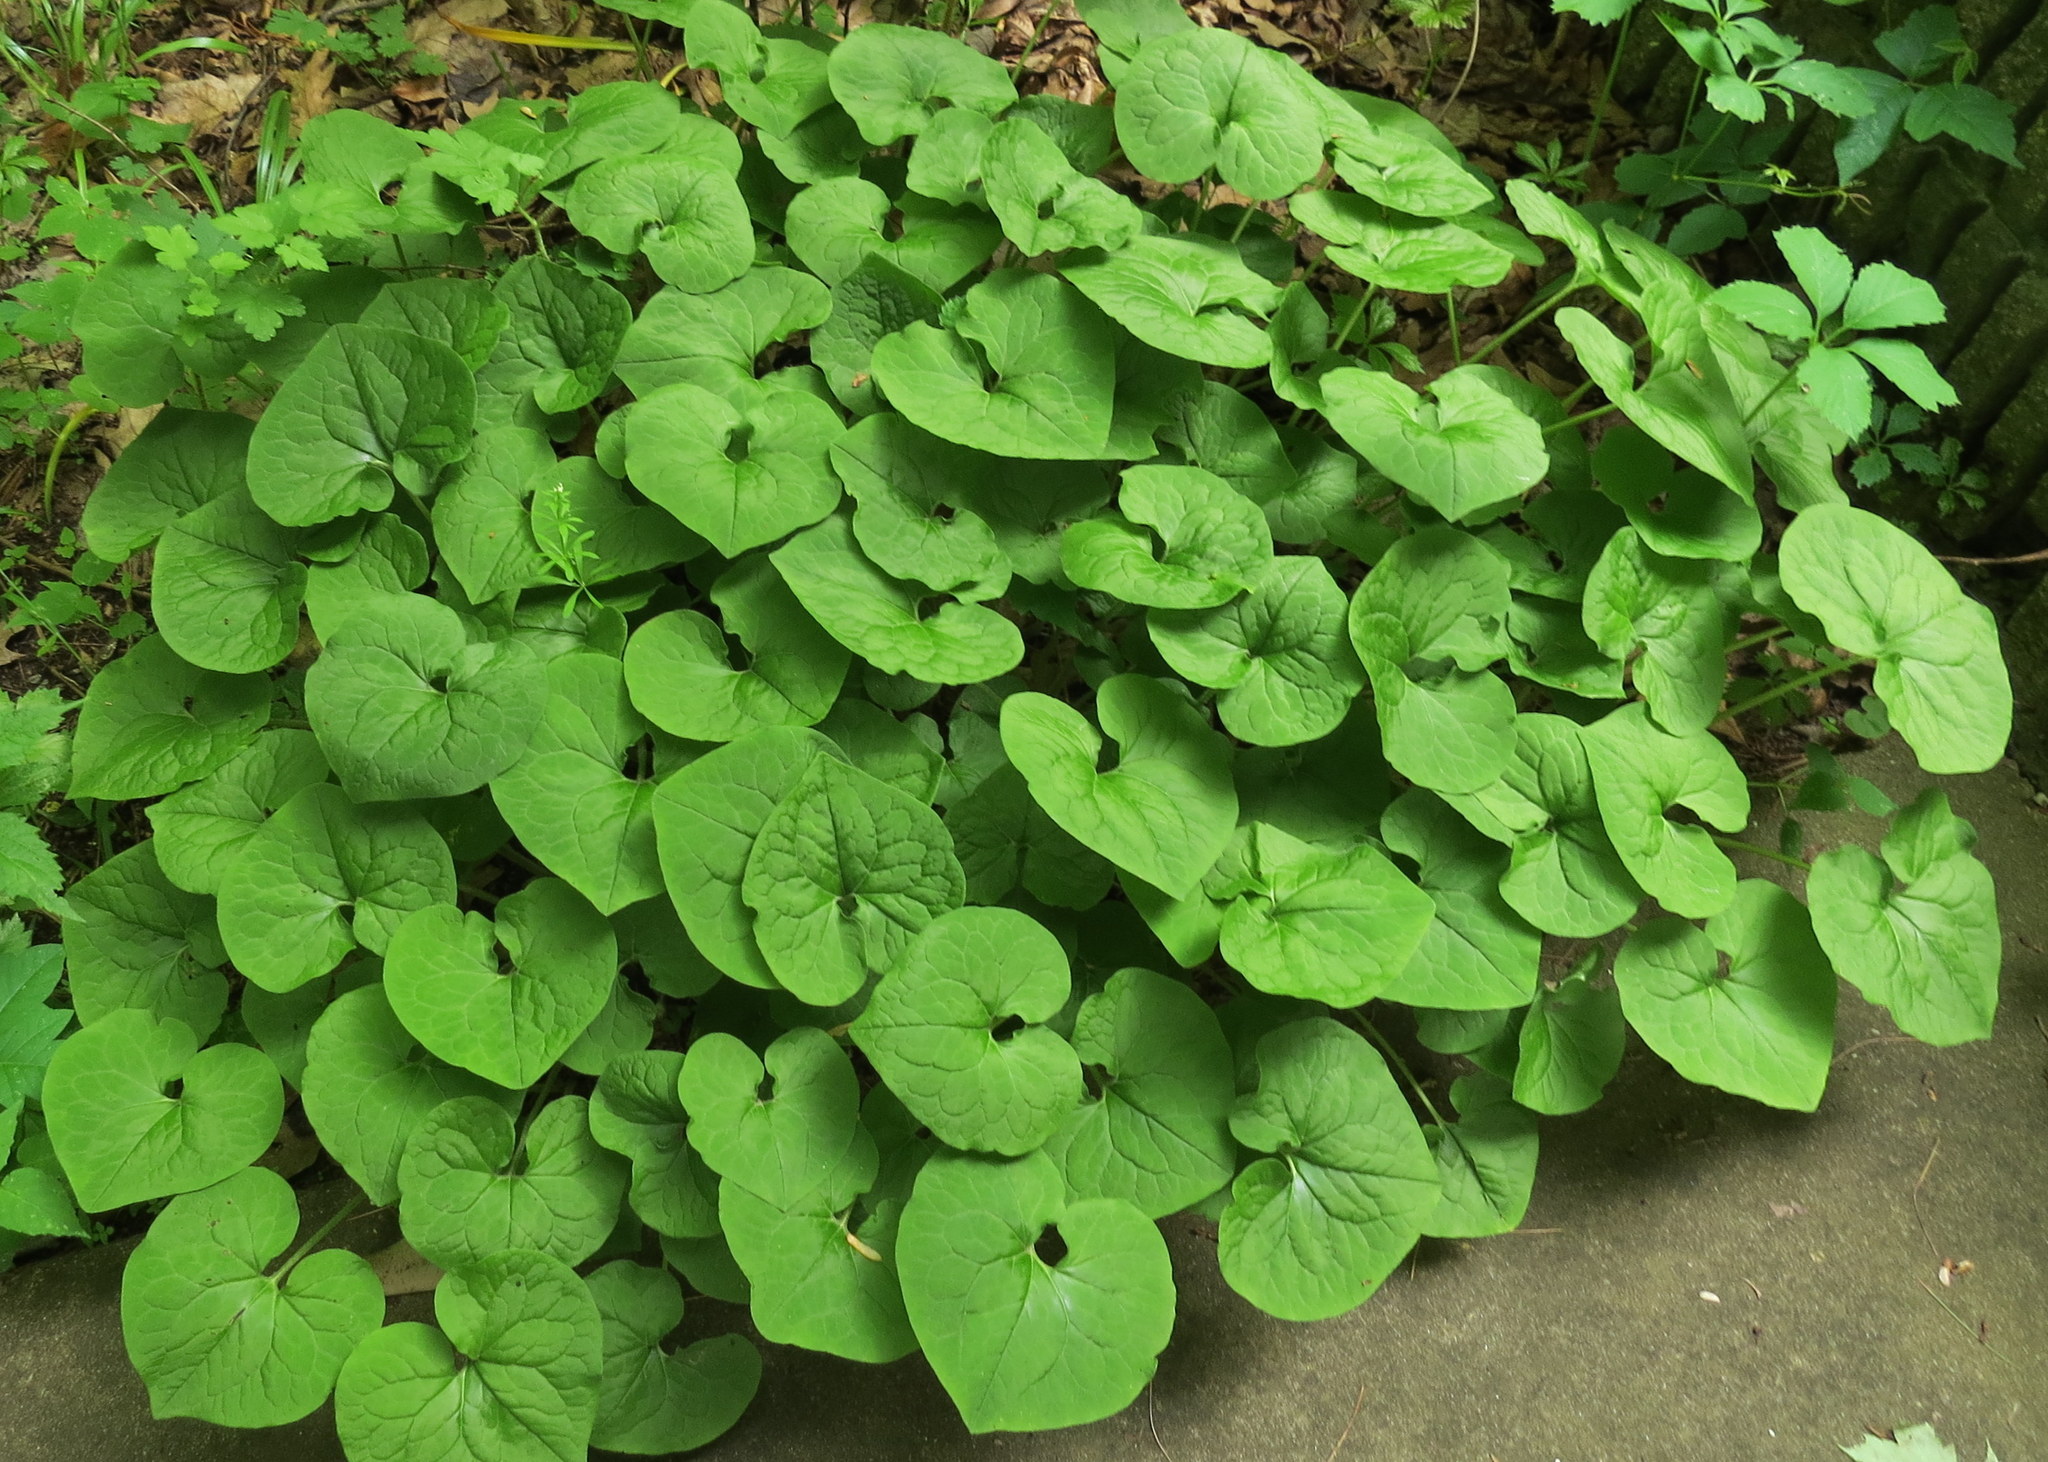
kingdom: Plantae
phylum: Tracheophyta
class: Magnoliopsida
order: Piperales
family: Aristolochiaceae
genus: Asarum
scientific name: Asarum canadense
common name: Wild ginger
